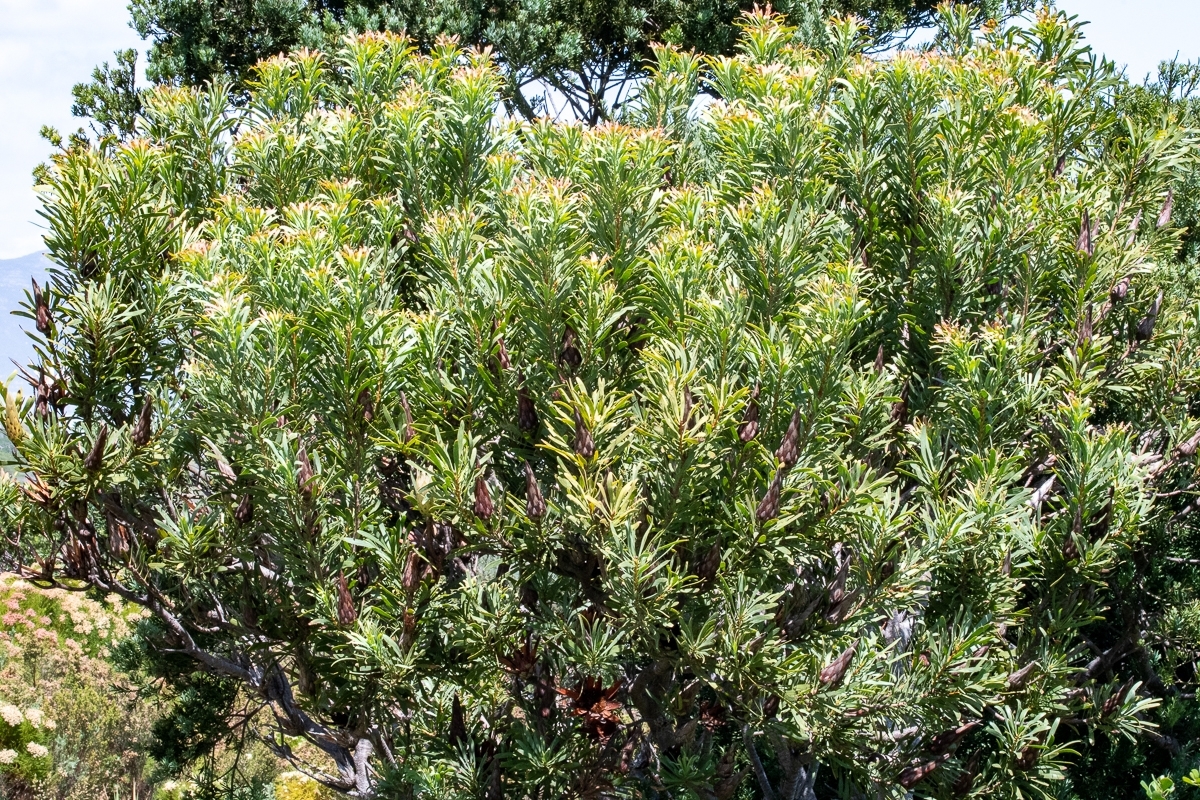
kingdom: Plantae
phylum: Tracheophyta
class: Magnoliopsida
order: Proteales
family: Proteaceae
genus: Protea
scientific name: Protea repens
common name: Sugarbush
